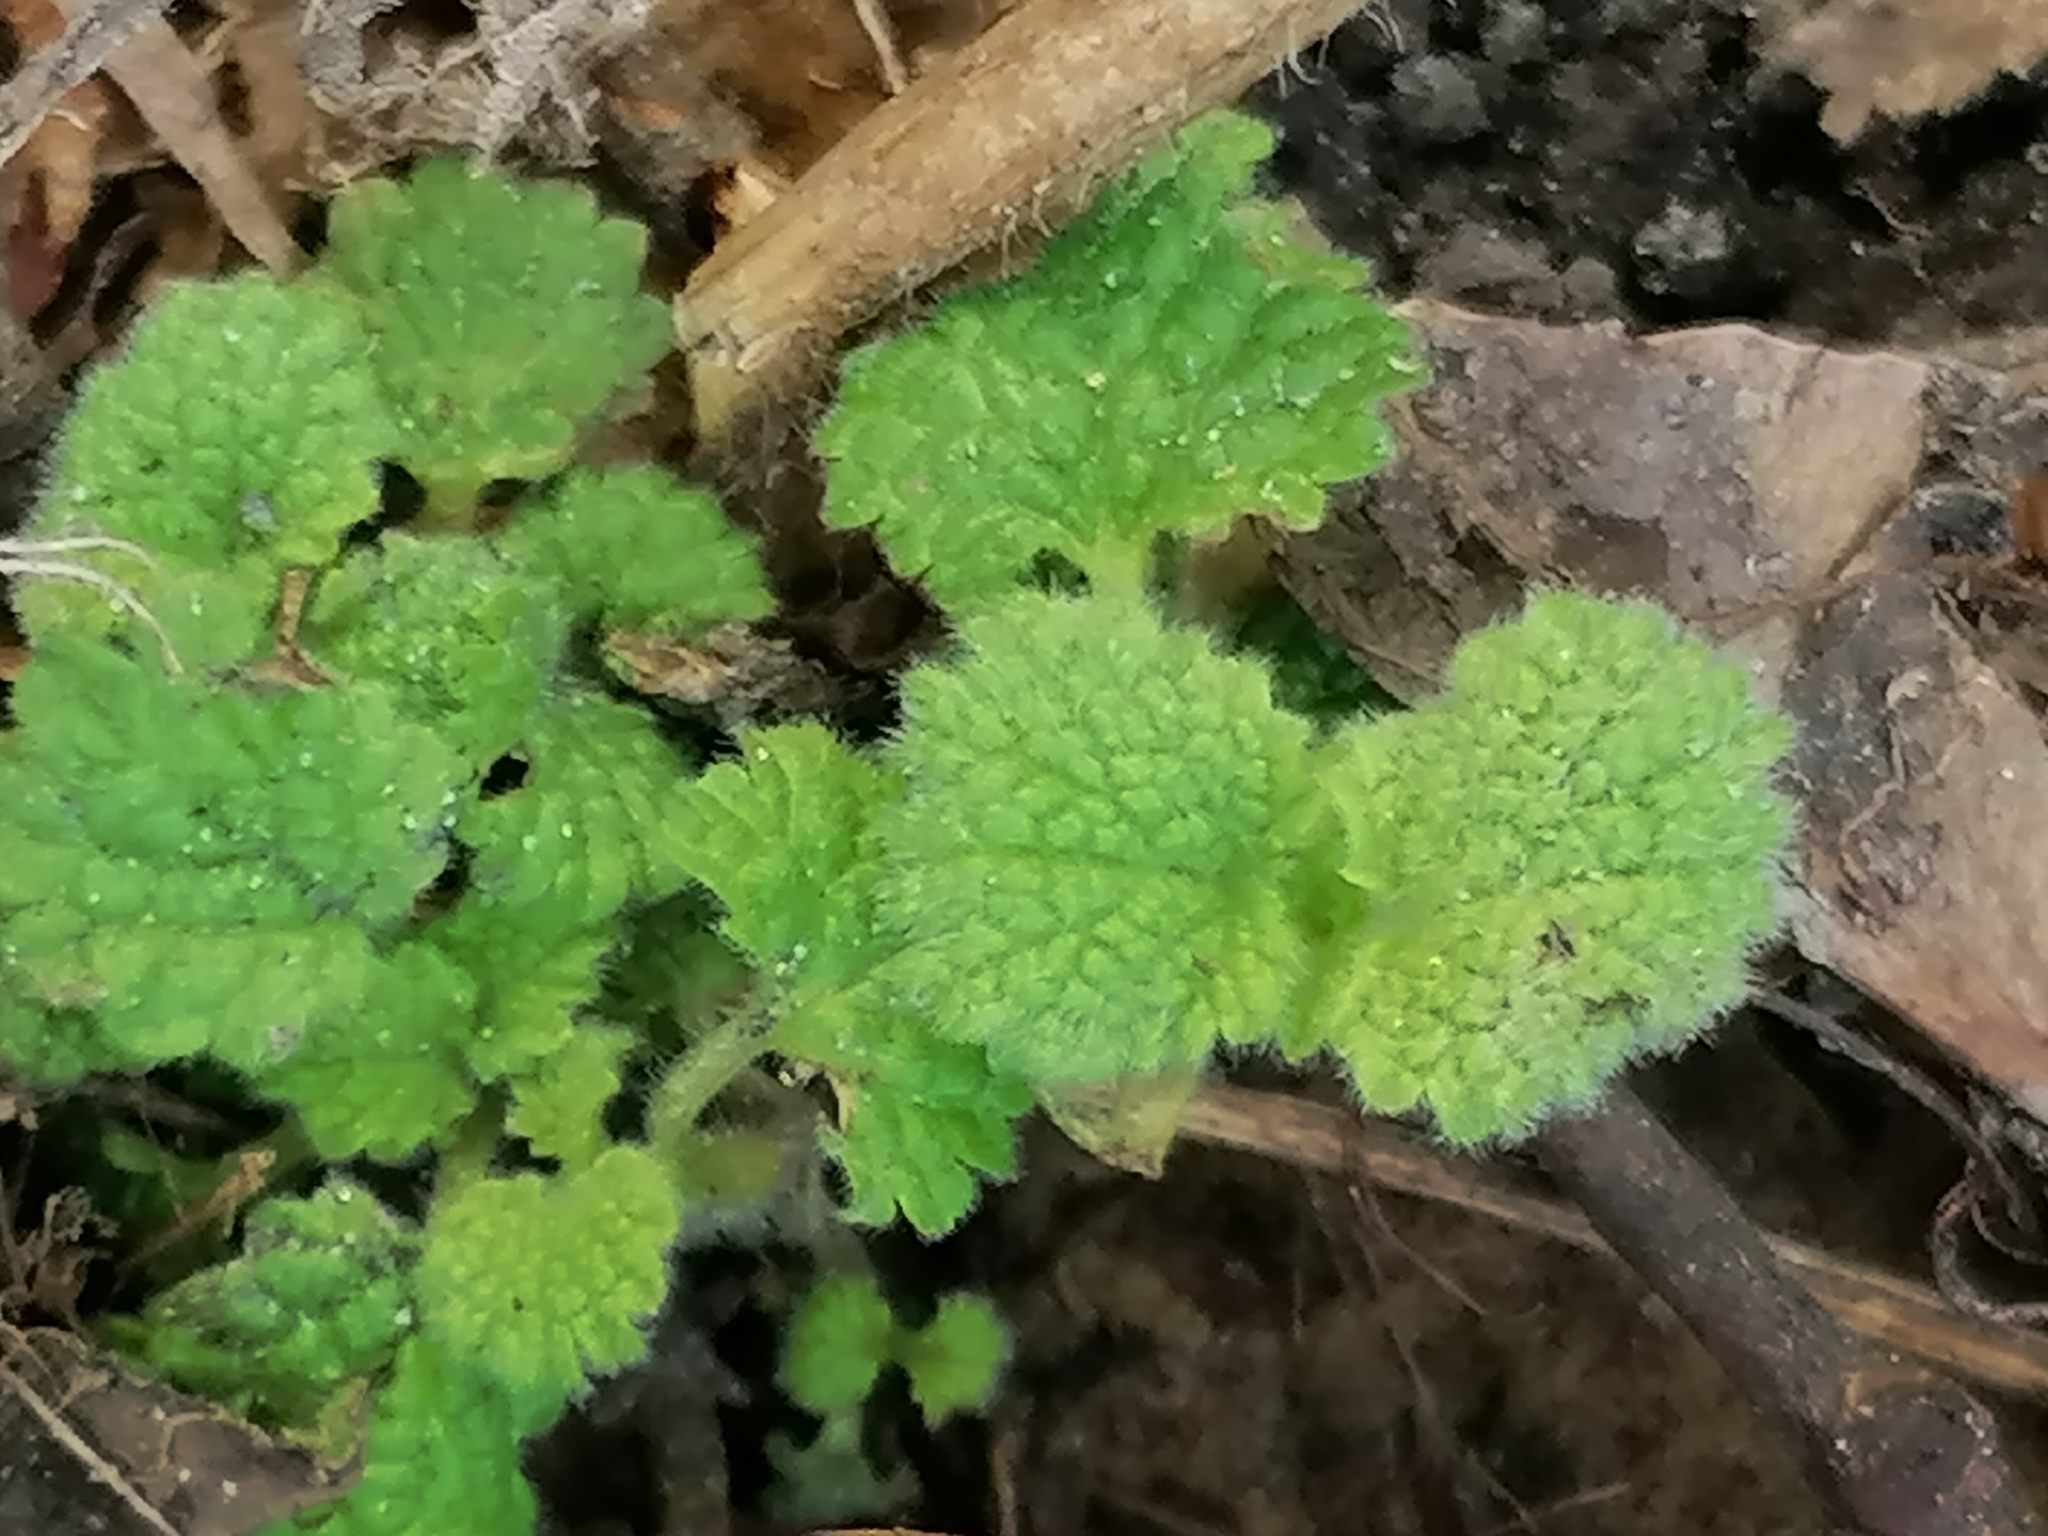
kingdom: Plantae
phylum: Tracheophyta
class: Magnoliopsida
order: Lamiales
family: Lamiaceae
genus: Ballota
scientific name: Ballota nigra
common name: Black horehound
